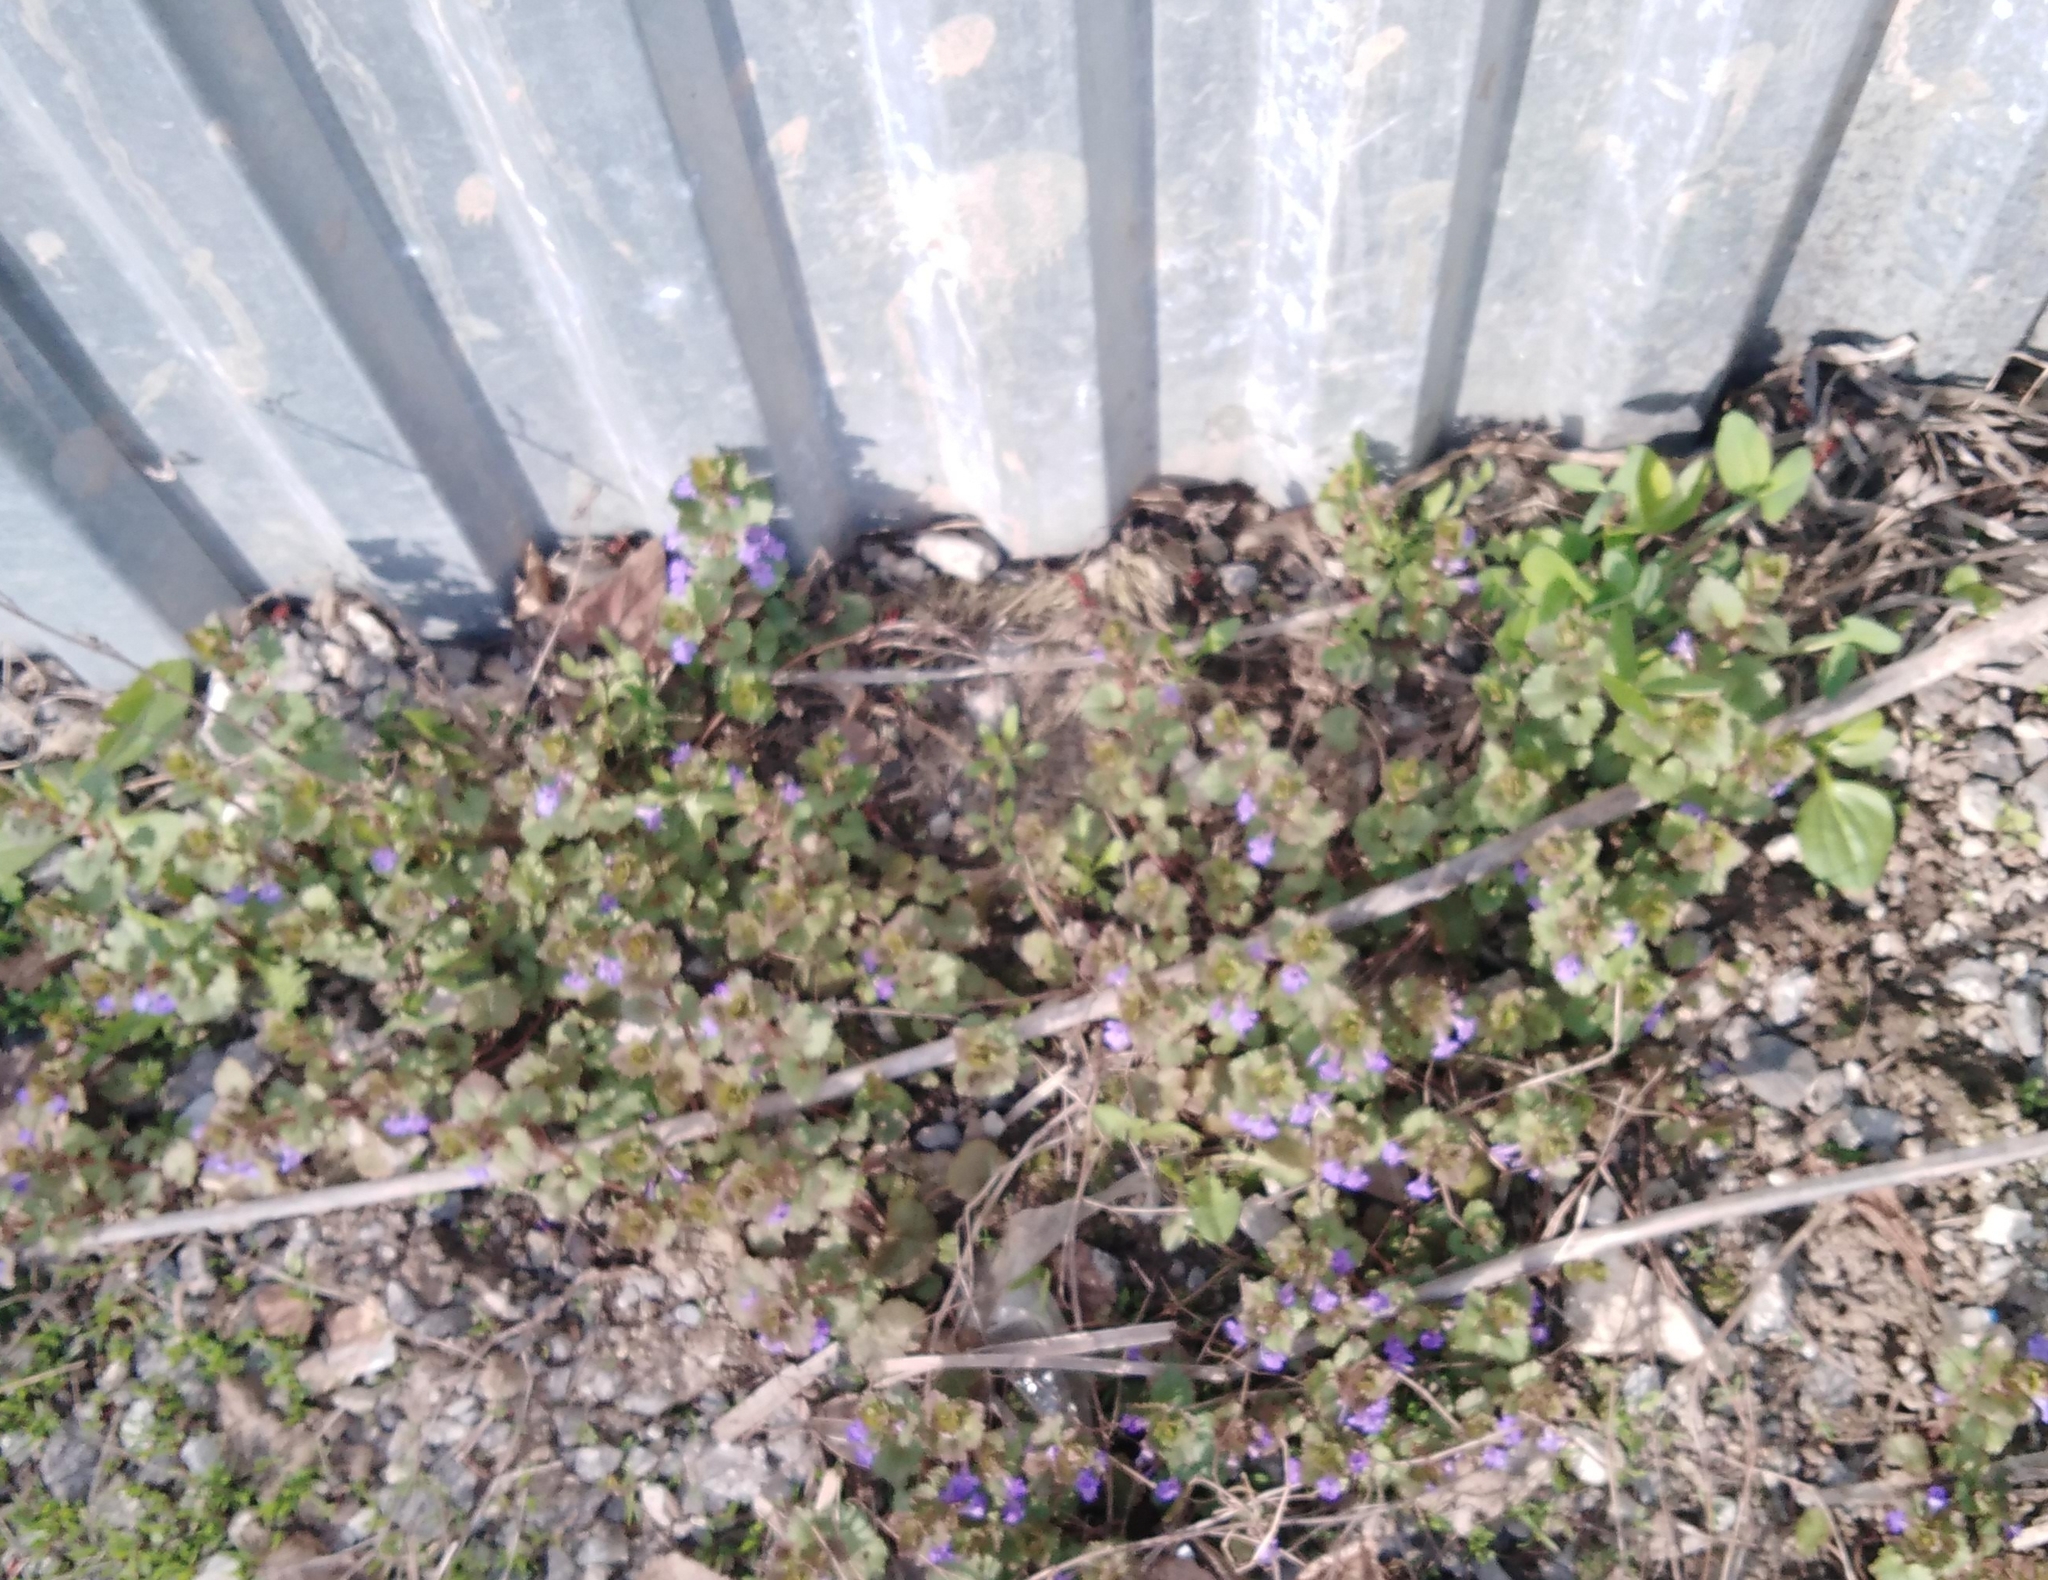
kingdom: Plantae
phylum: Tracheophyta
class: Magnoliopsida
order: Lamiales
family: Lamiaceae
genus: Glechoma
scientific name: Glechoma hederacea
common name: Ground ivy
